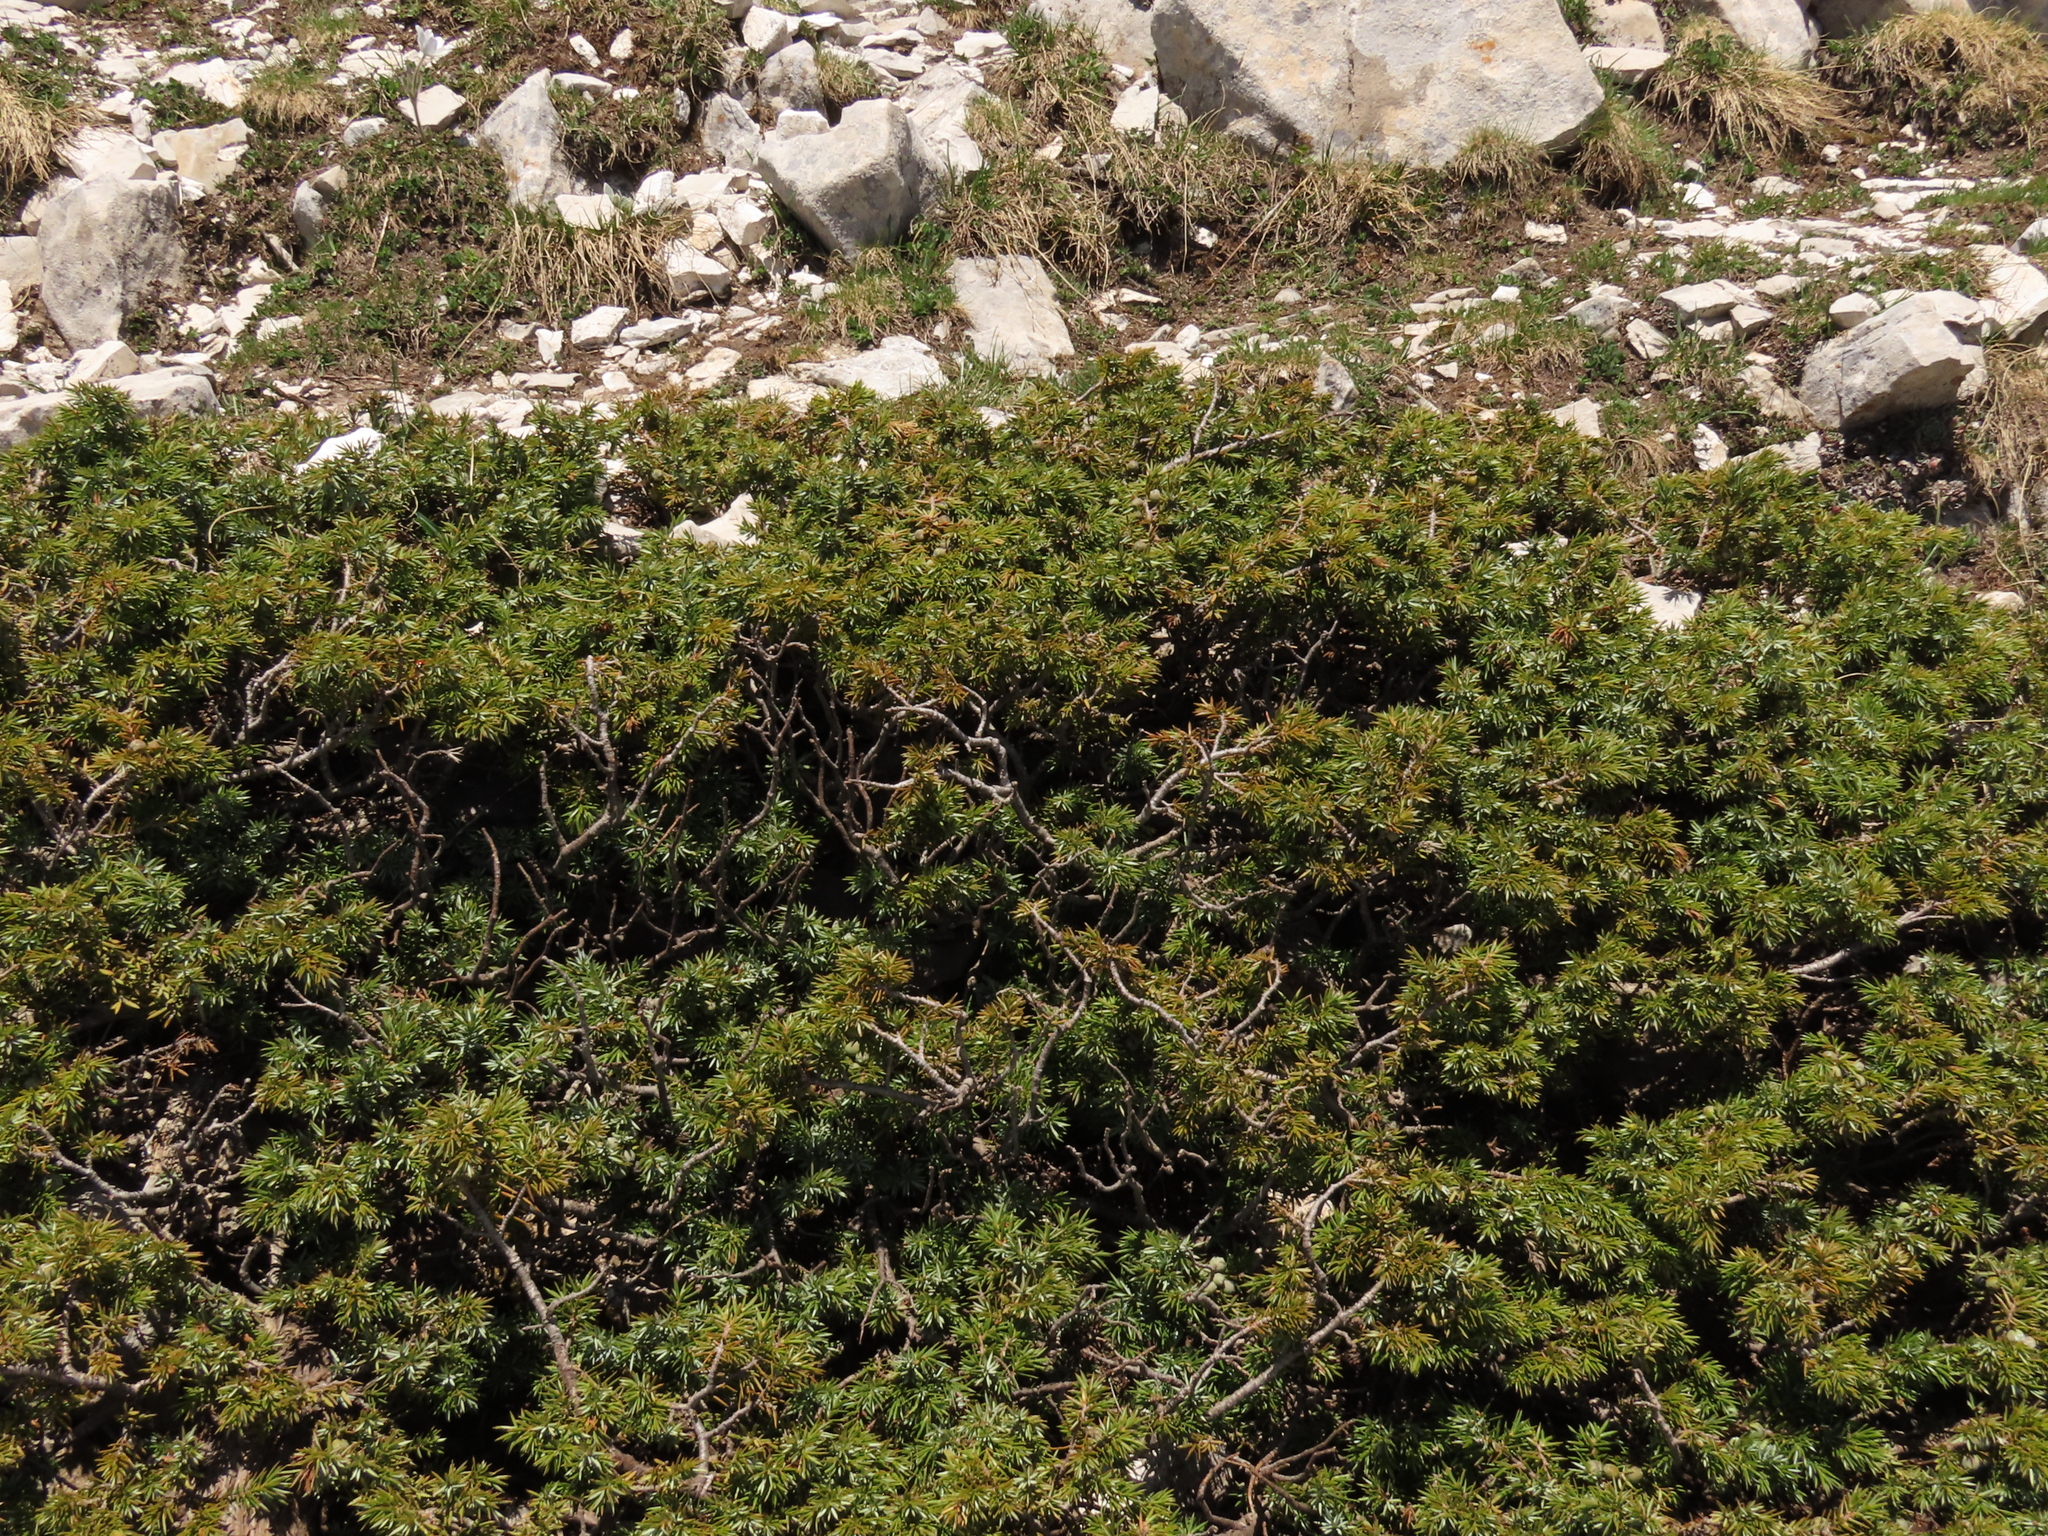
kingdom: Plantae
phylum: Tracheophyta
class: Pinopsida
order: Pinales
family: Cupressaceae
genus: Juniperus
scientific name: Juniperus communis
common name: Common juniper
